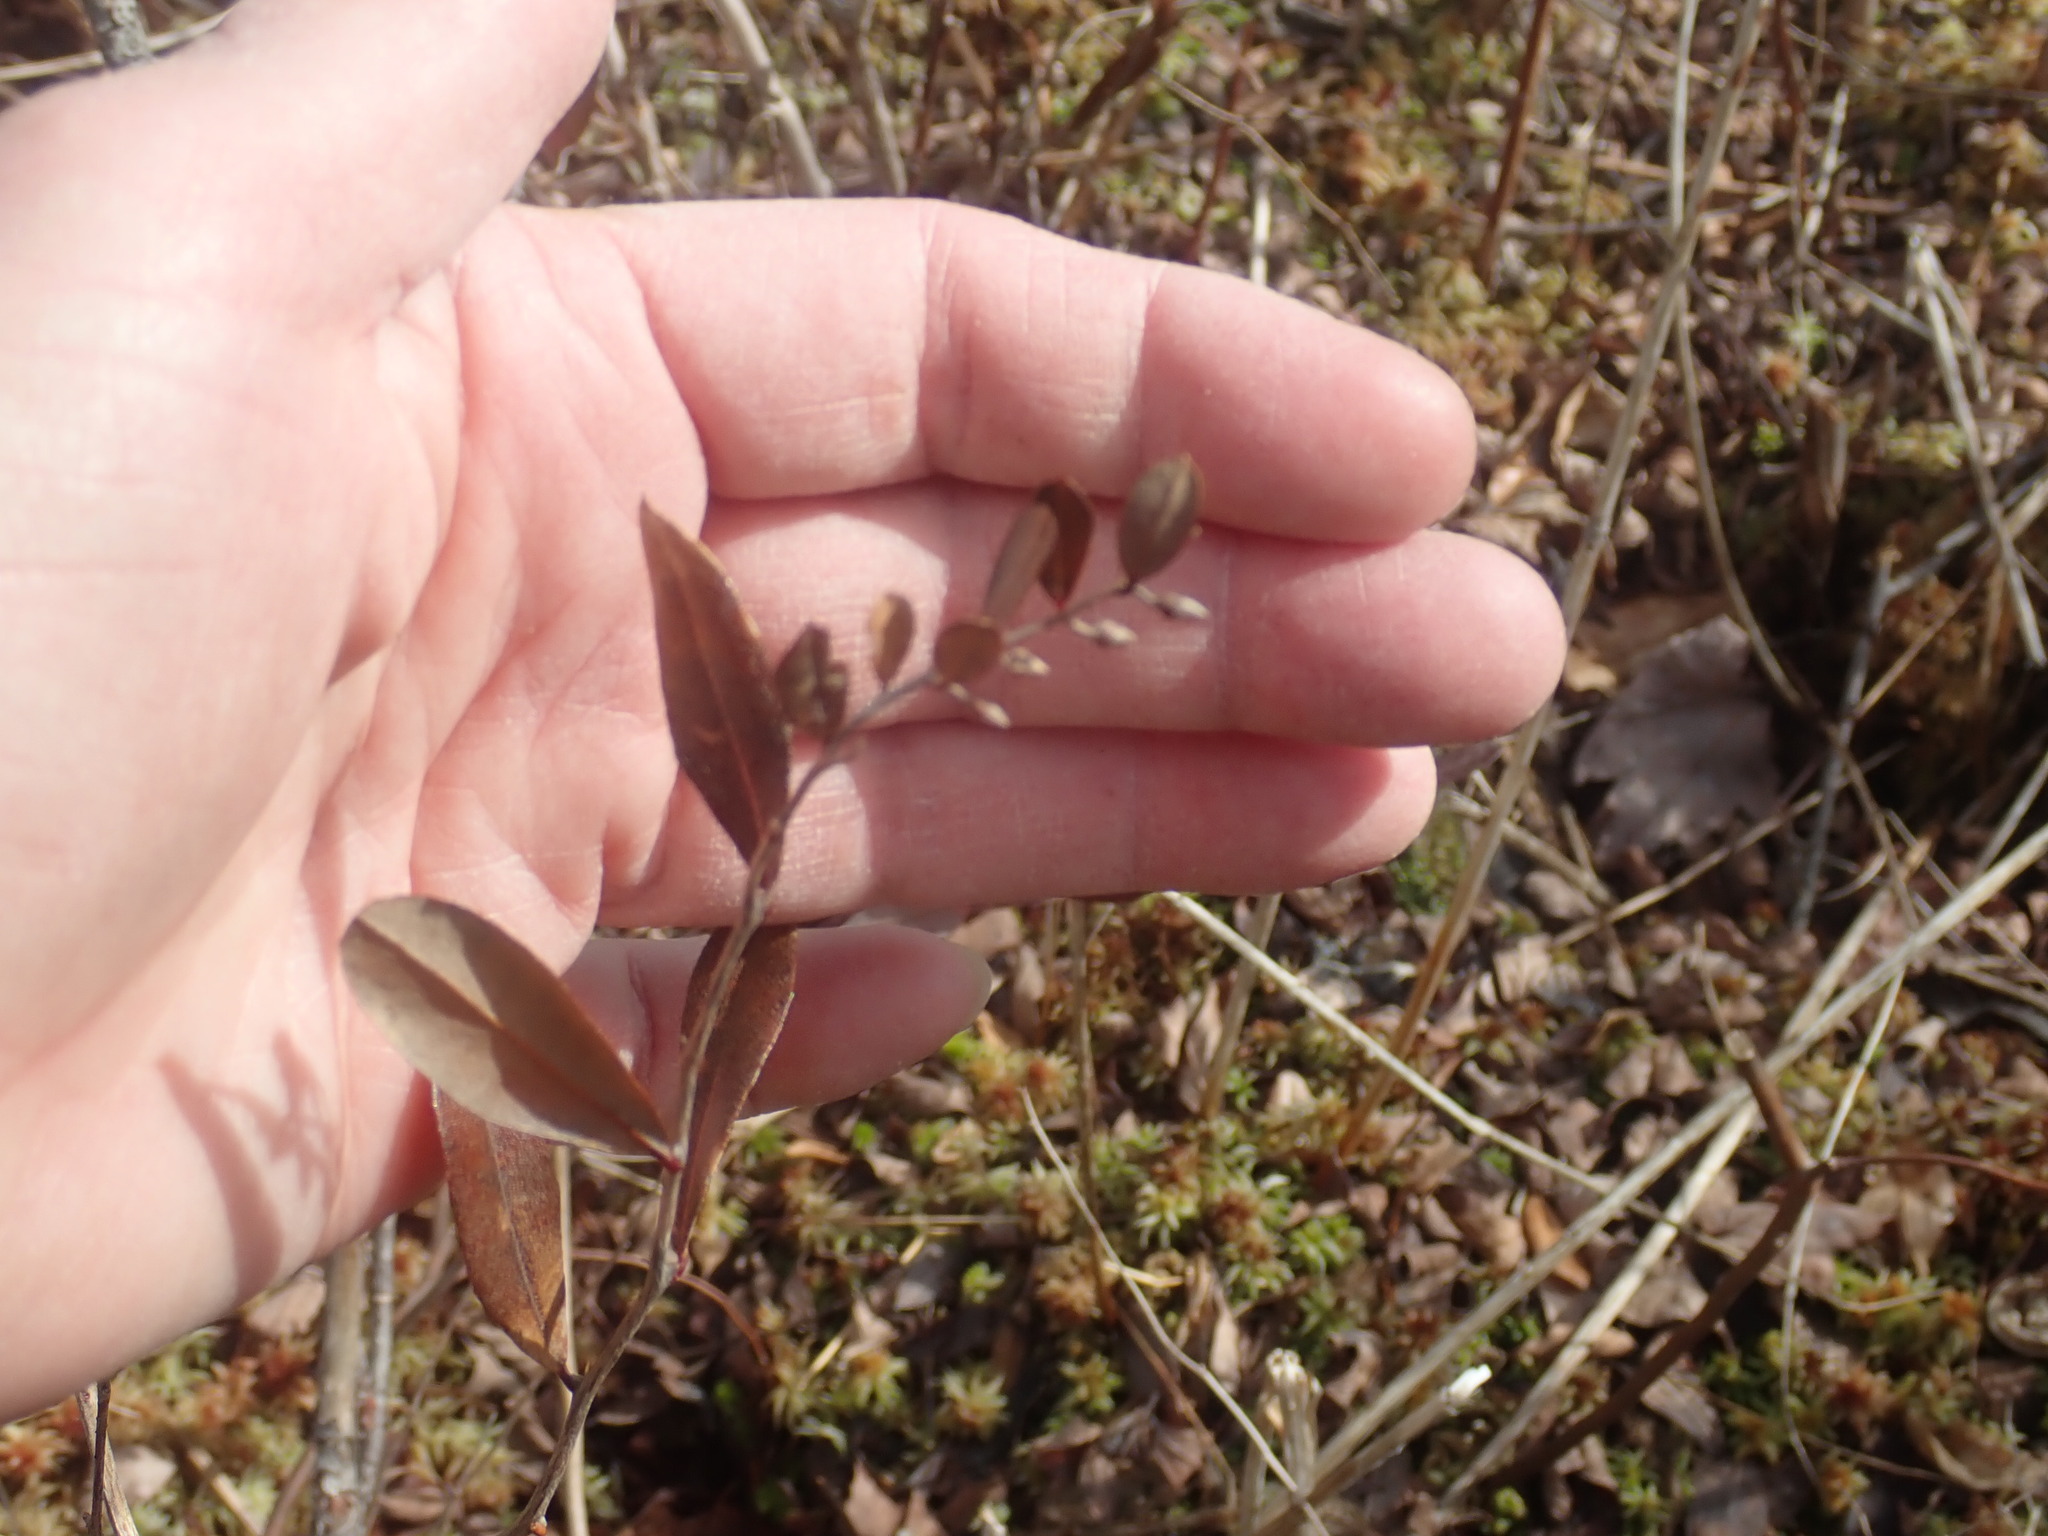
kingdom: Plantae
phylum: Tracheophyta
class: Magnoliopsida
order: Ericales
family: Ericaceae
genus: Chamaedaphne
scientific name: Chamaedaphne calyculata
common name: Leatherleaf
